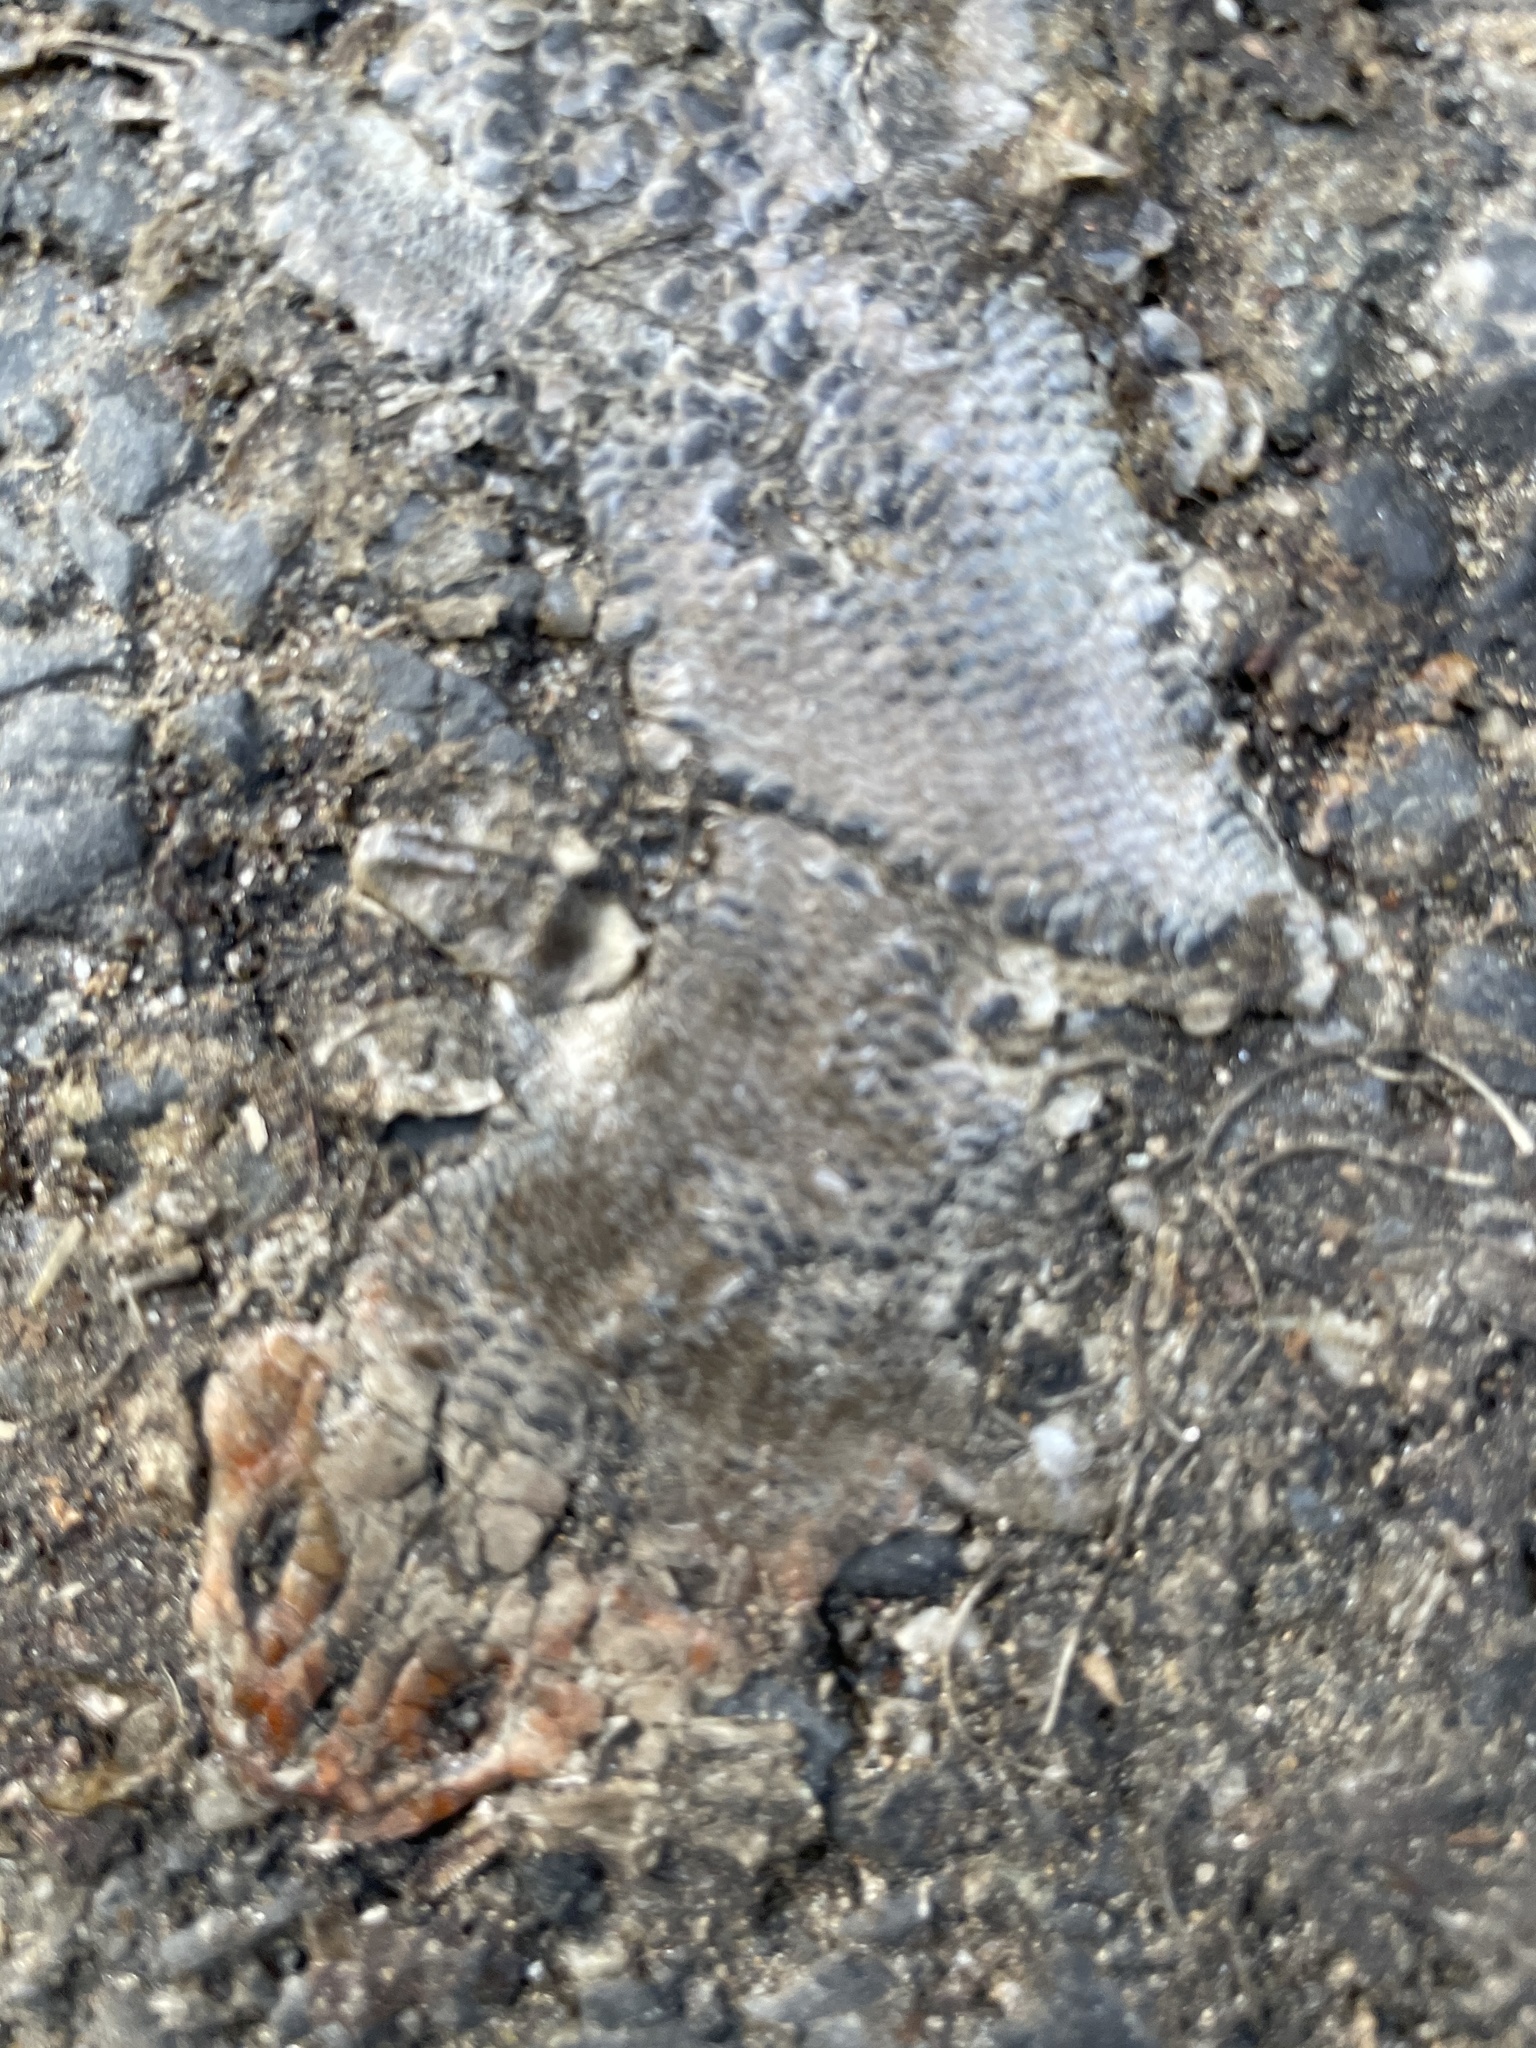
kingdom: Animalia
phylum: Chordata
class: Squamata
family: Scincidae
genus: Plestiodon
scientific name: Plestiodon
